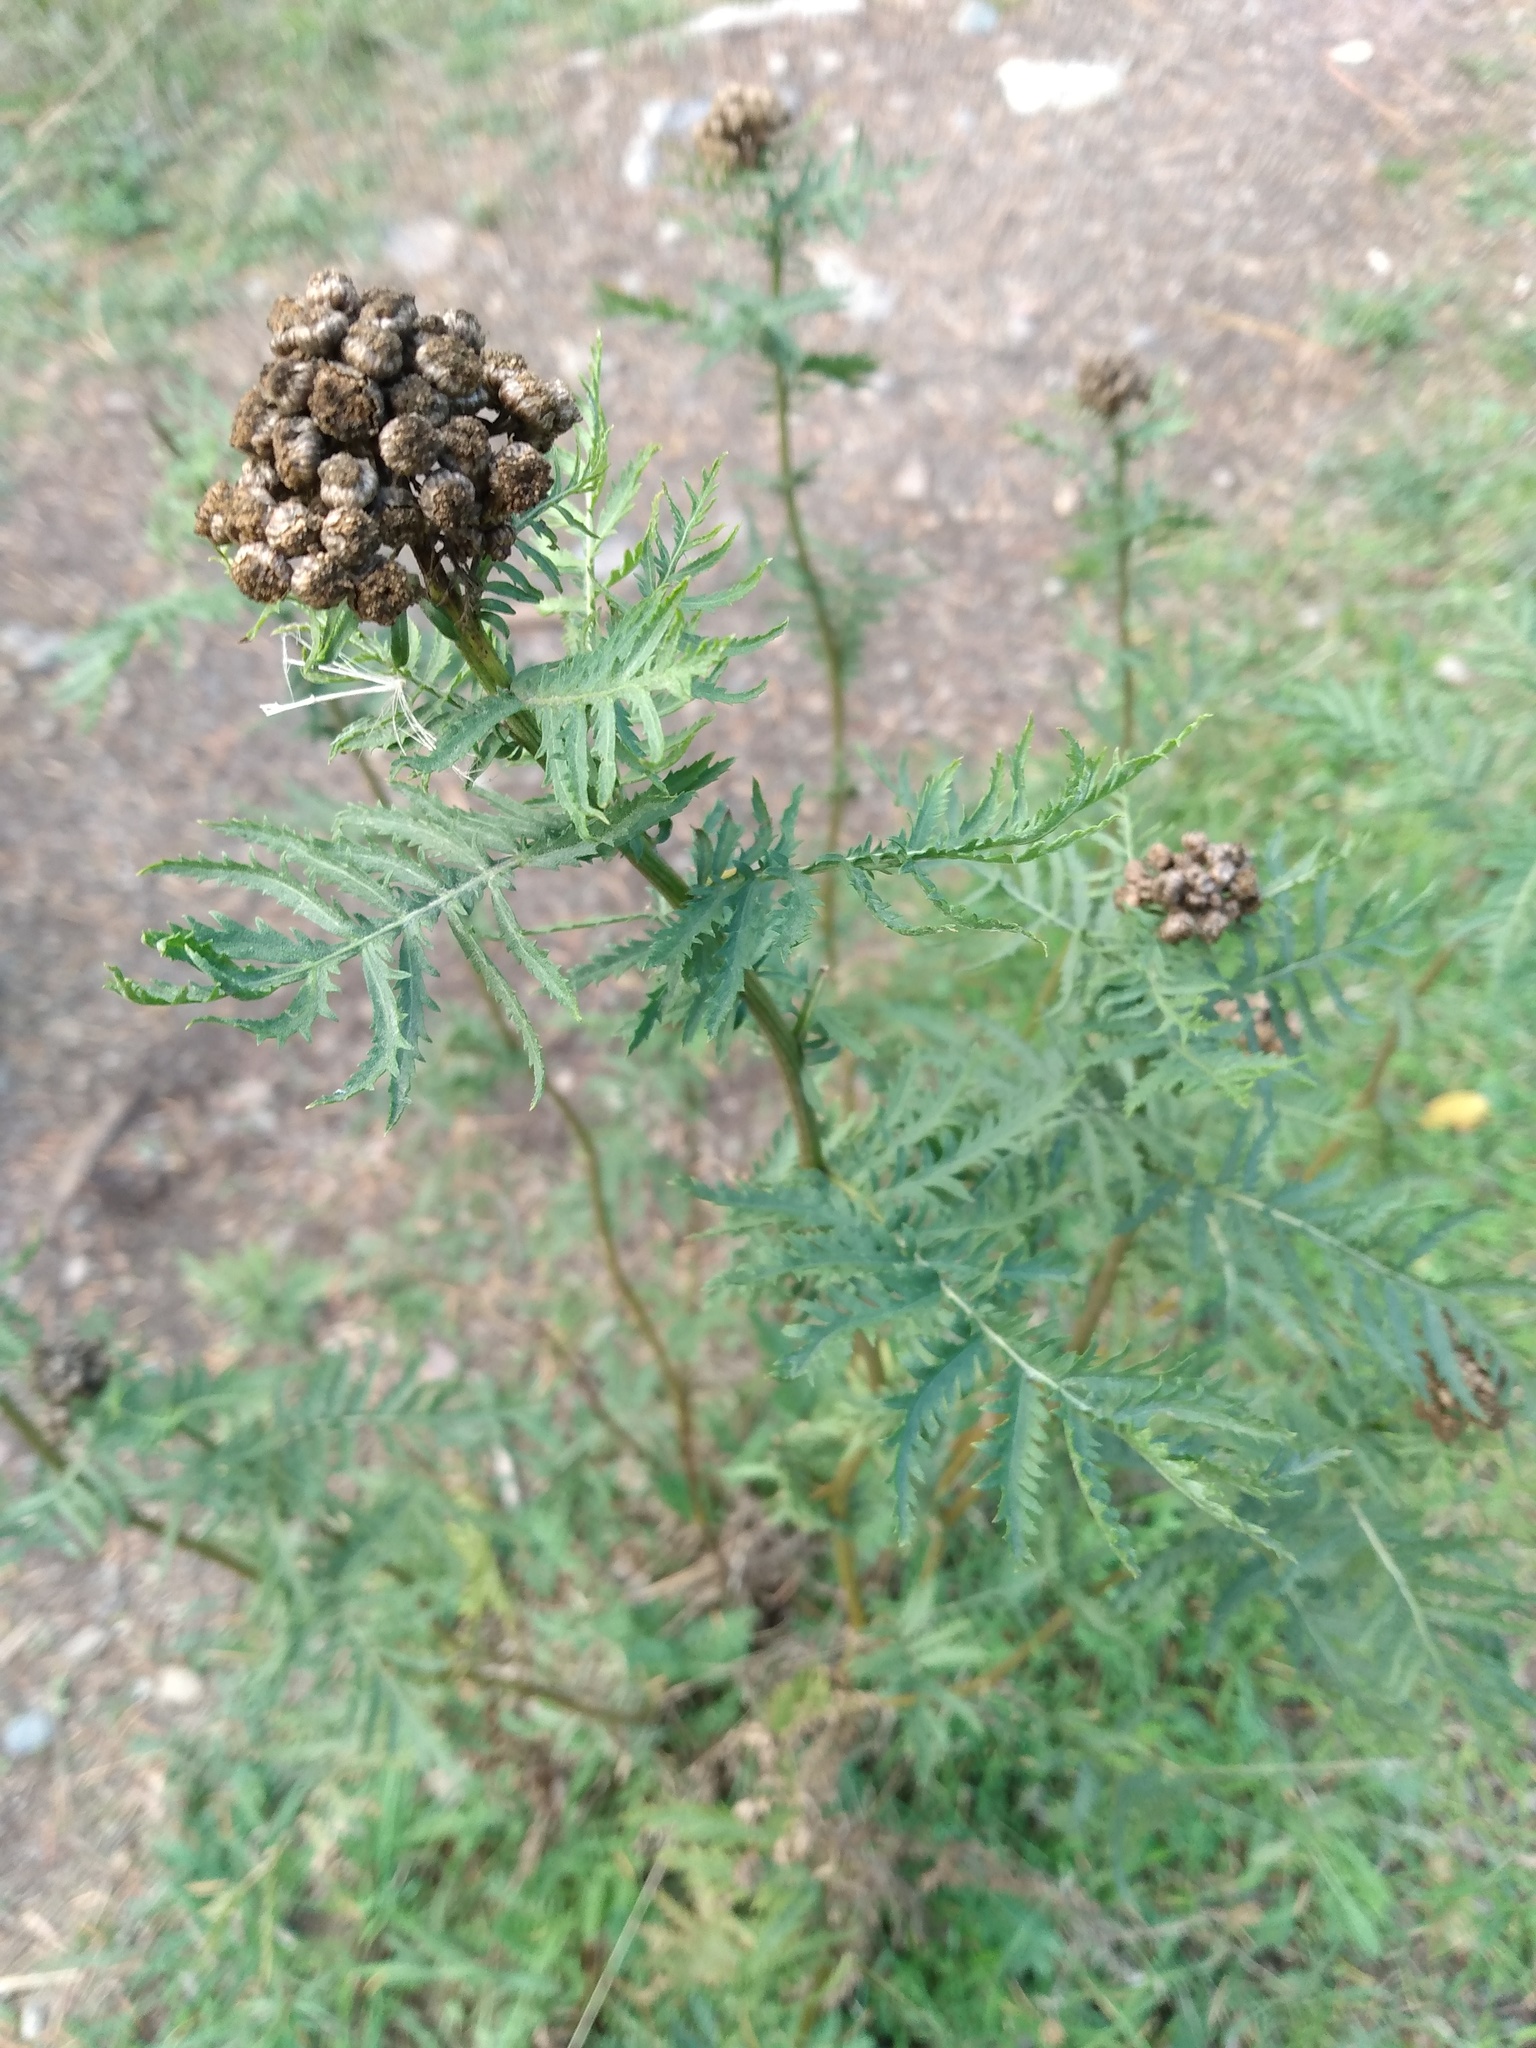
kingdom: Plantae
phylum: Tracheophyta
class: Magnoliopsida
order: Asterales
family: Asteraceae
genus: Tanacetum
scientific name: Tanacetum vulgare
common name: Common tansy
